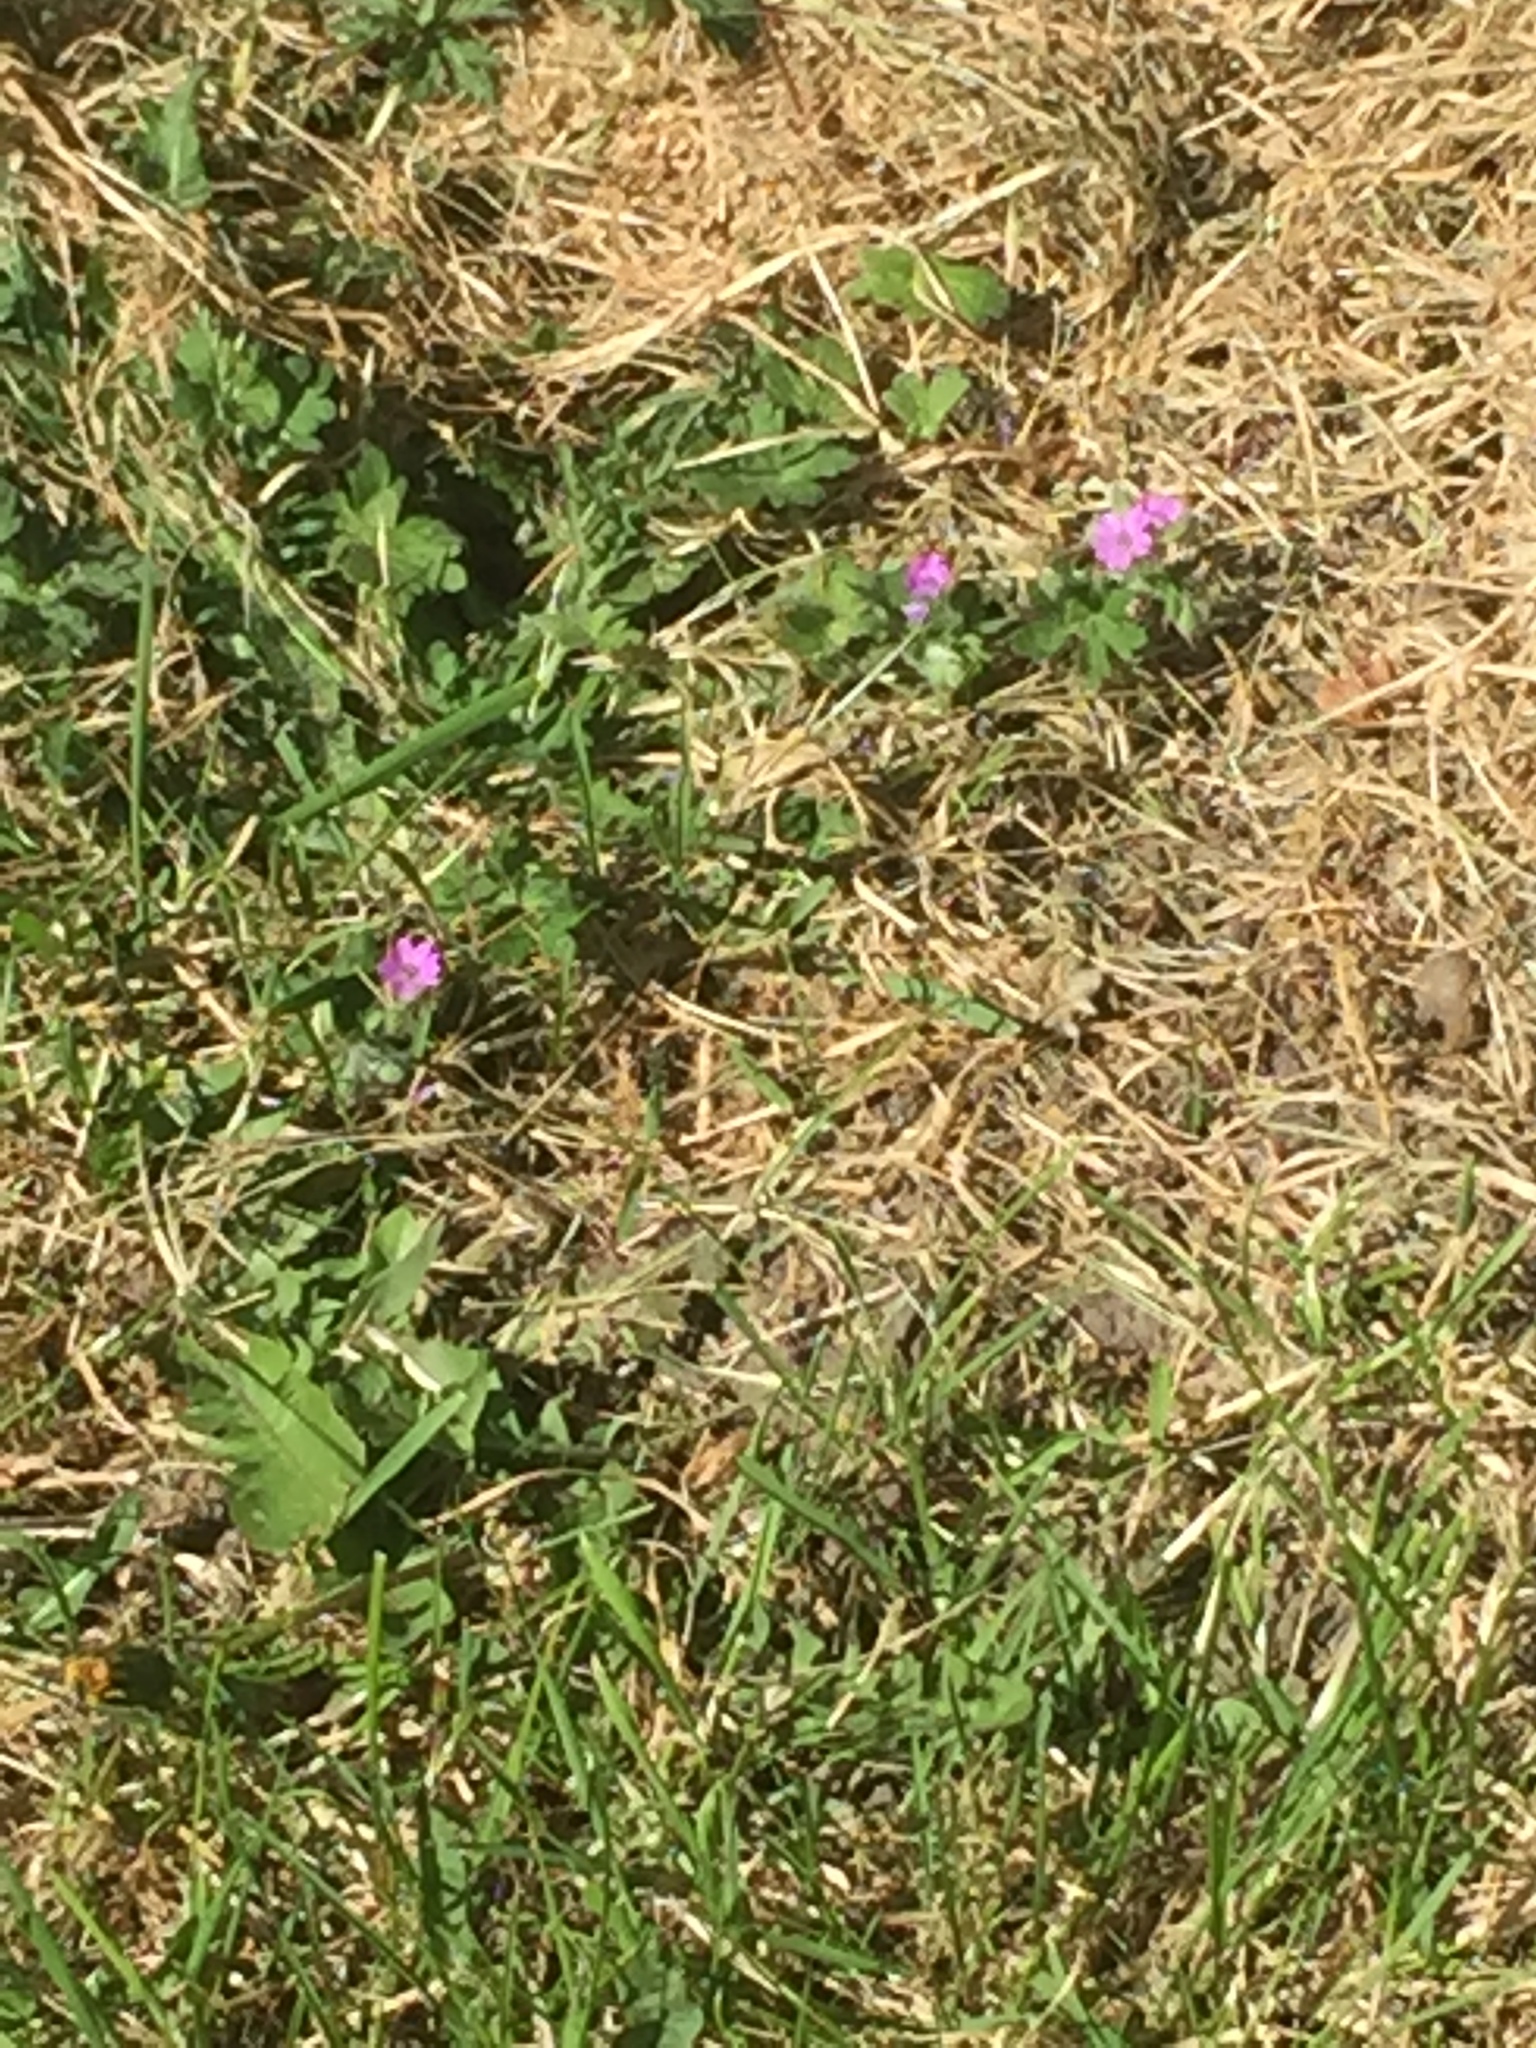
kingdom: Plantae
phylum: Tracheophyta
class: Magnoliopsida
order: Geraniales
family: Geraniaceae
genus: Geranium
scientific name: Geranium pyrenaicum
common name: Hedgerow crane's-bill
